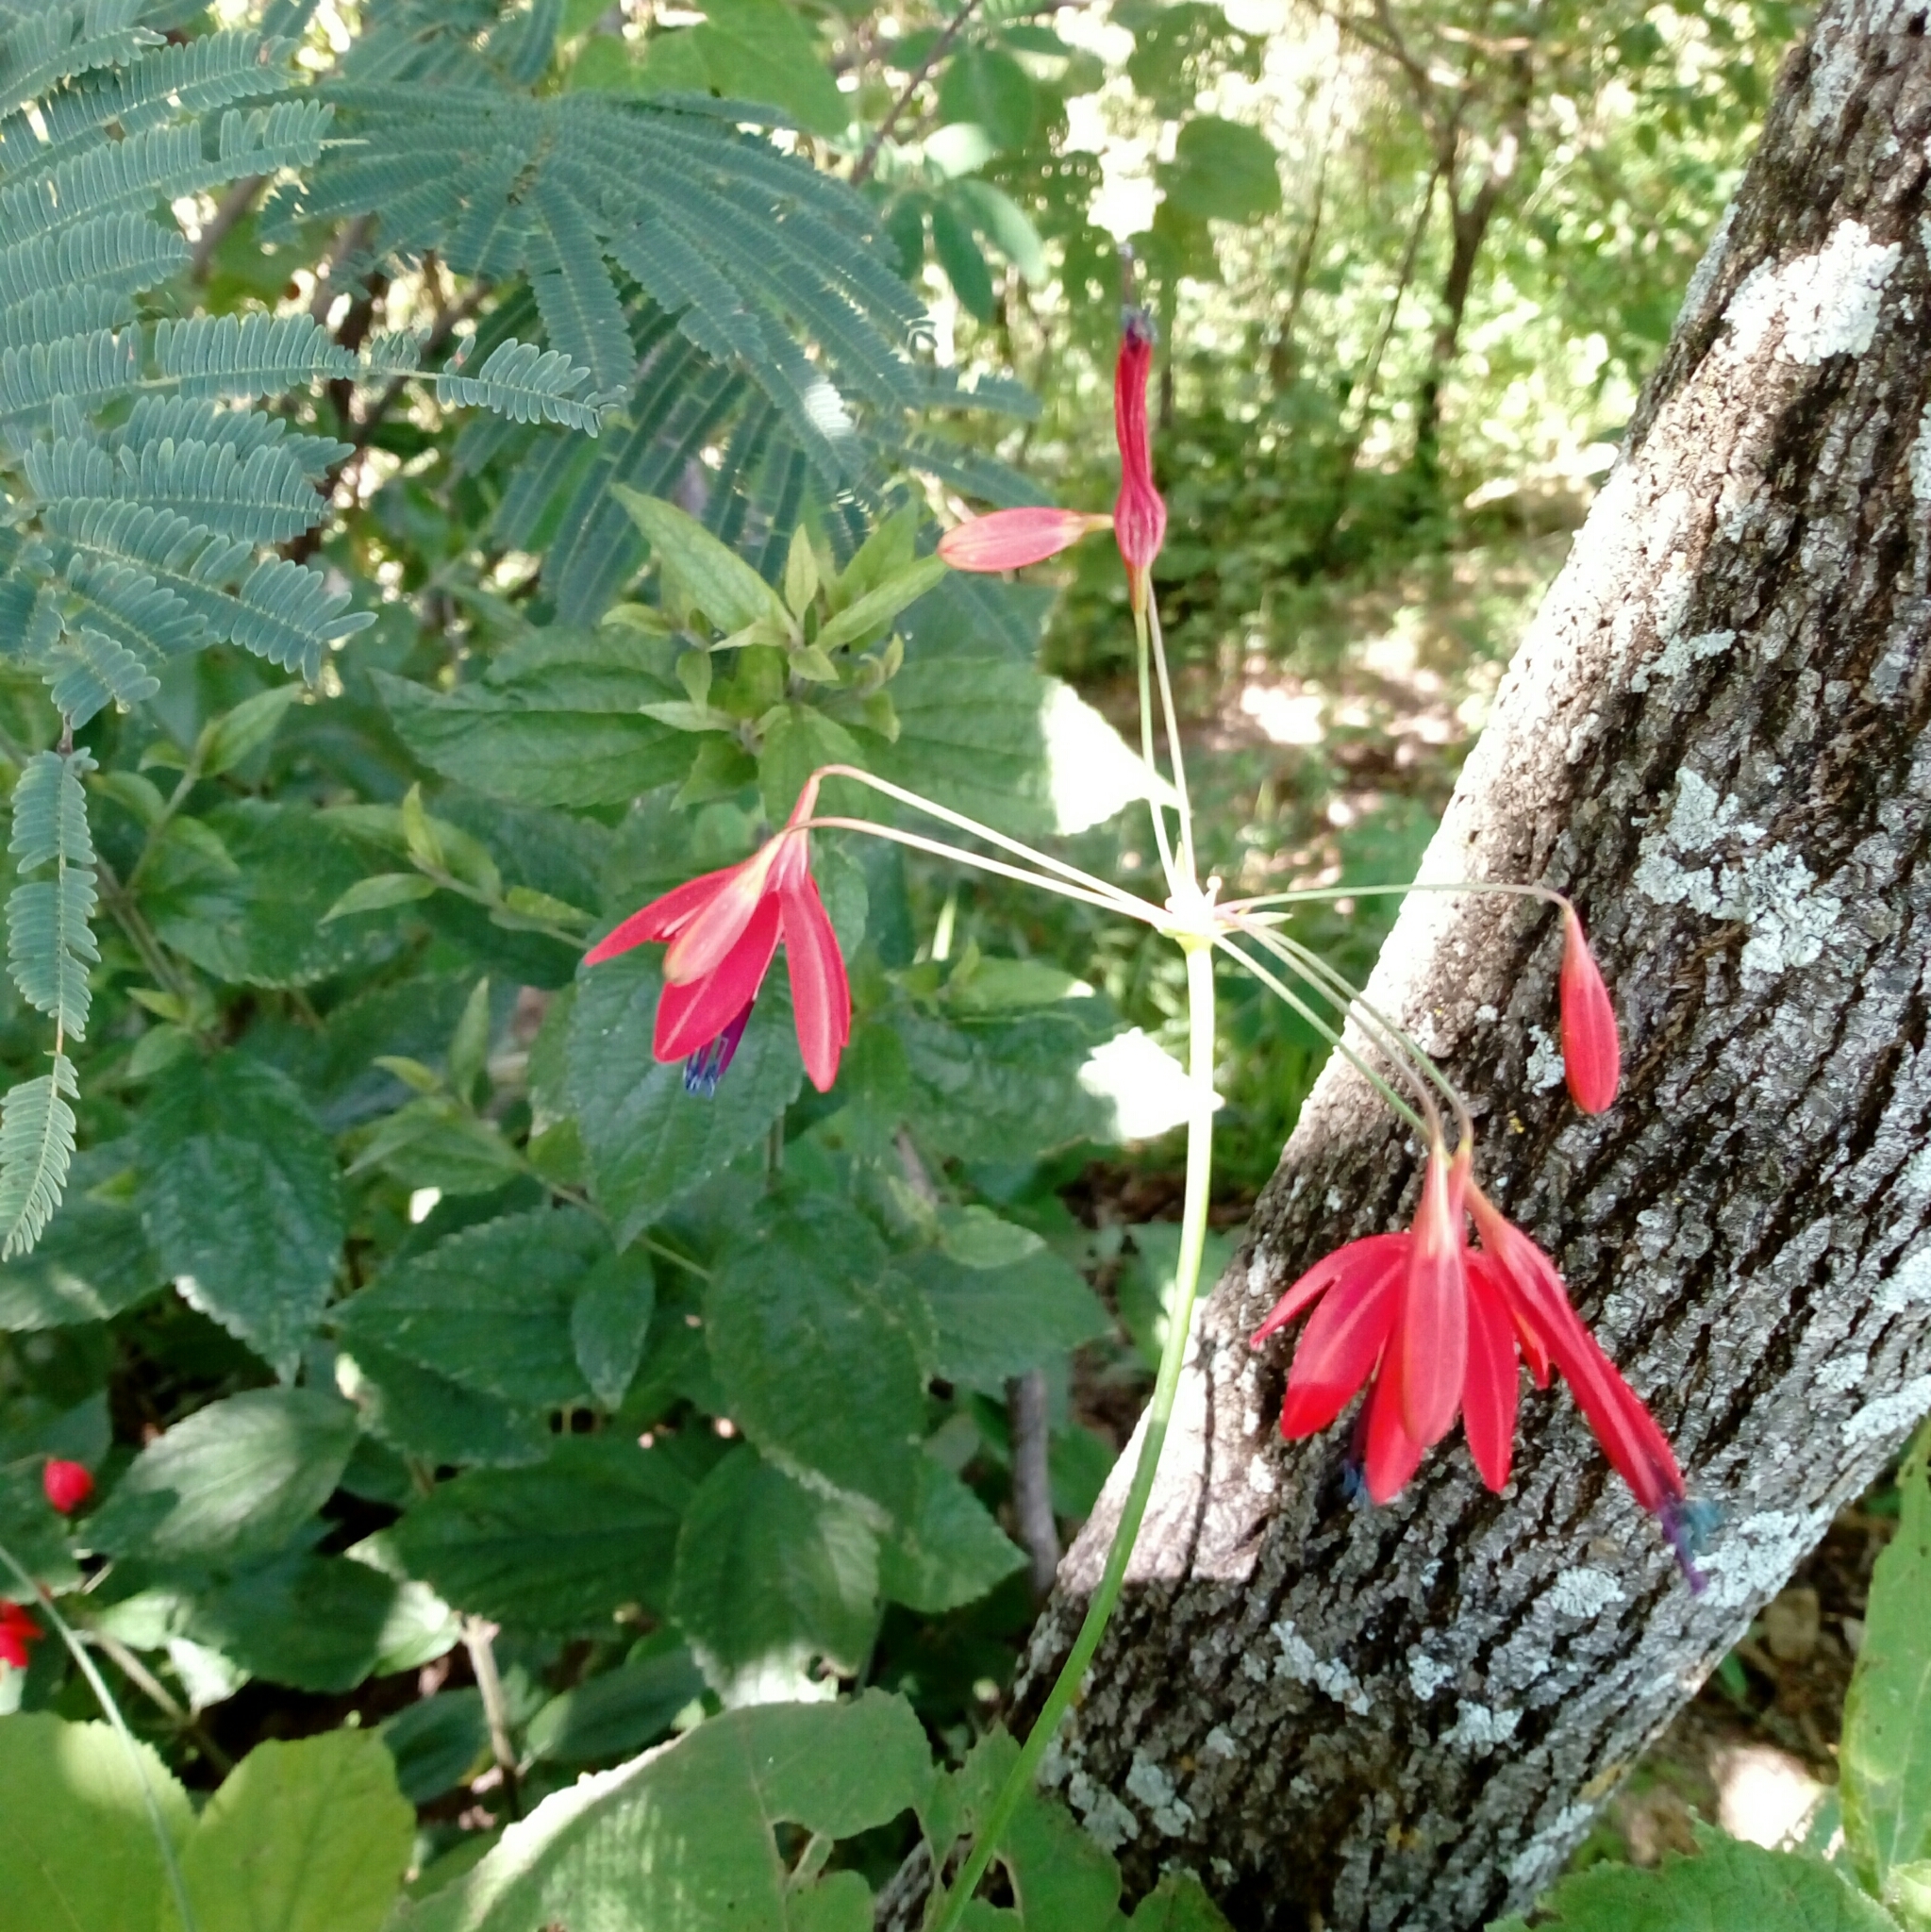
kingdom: Plantae
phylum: Tracheophyta
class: Liliopsida
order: Asparagales
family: Asparagaceae
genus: Bessera
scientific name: Bessera elegans
